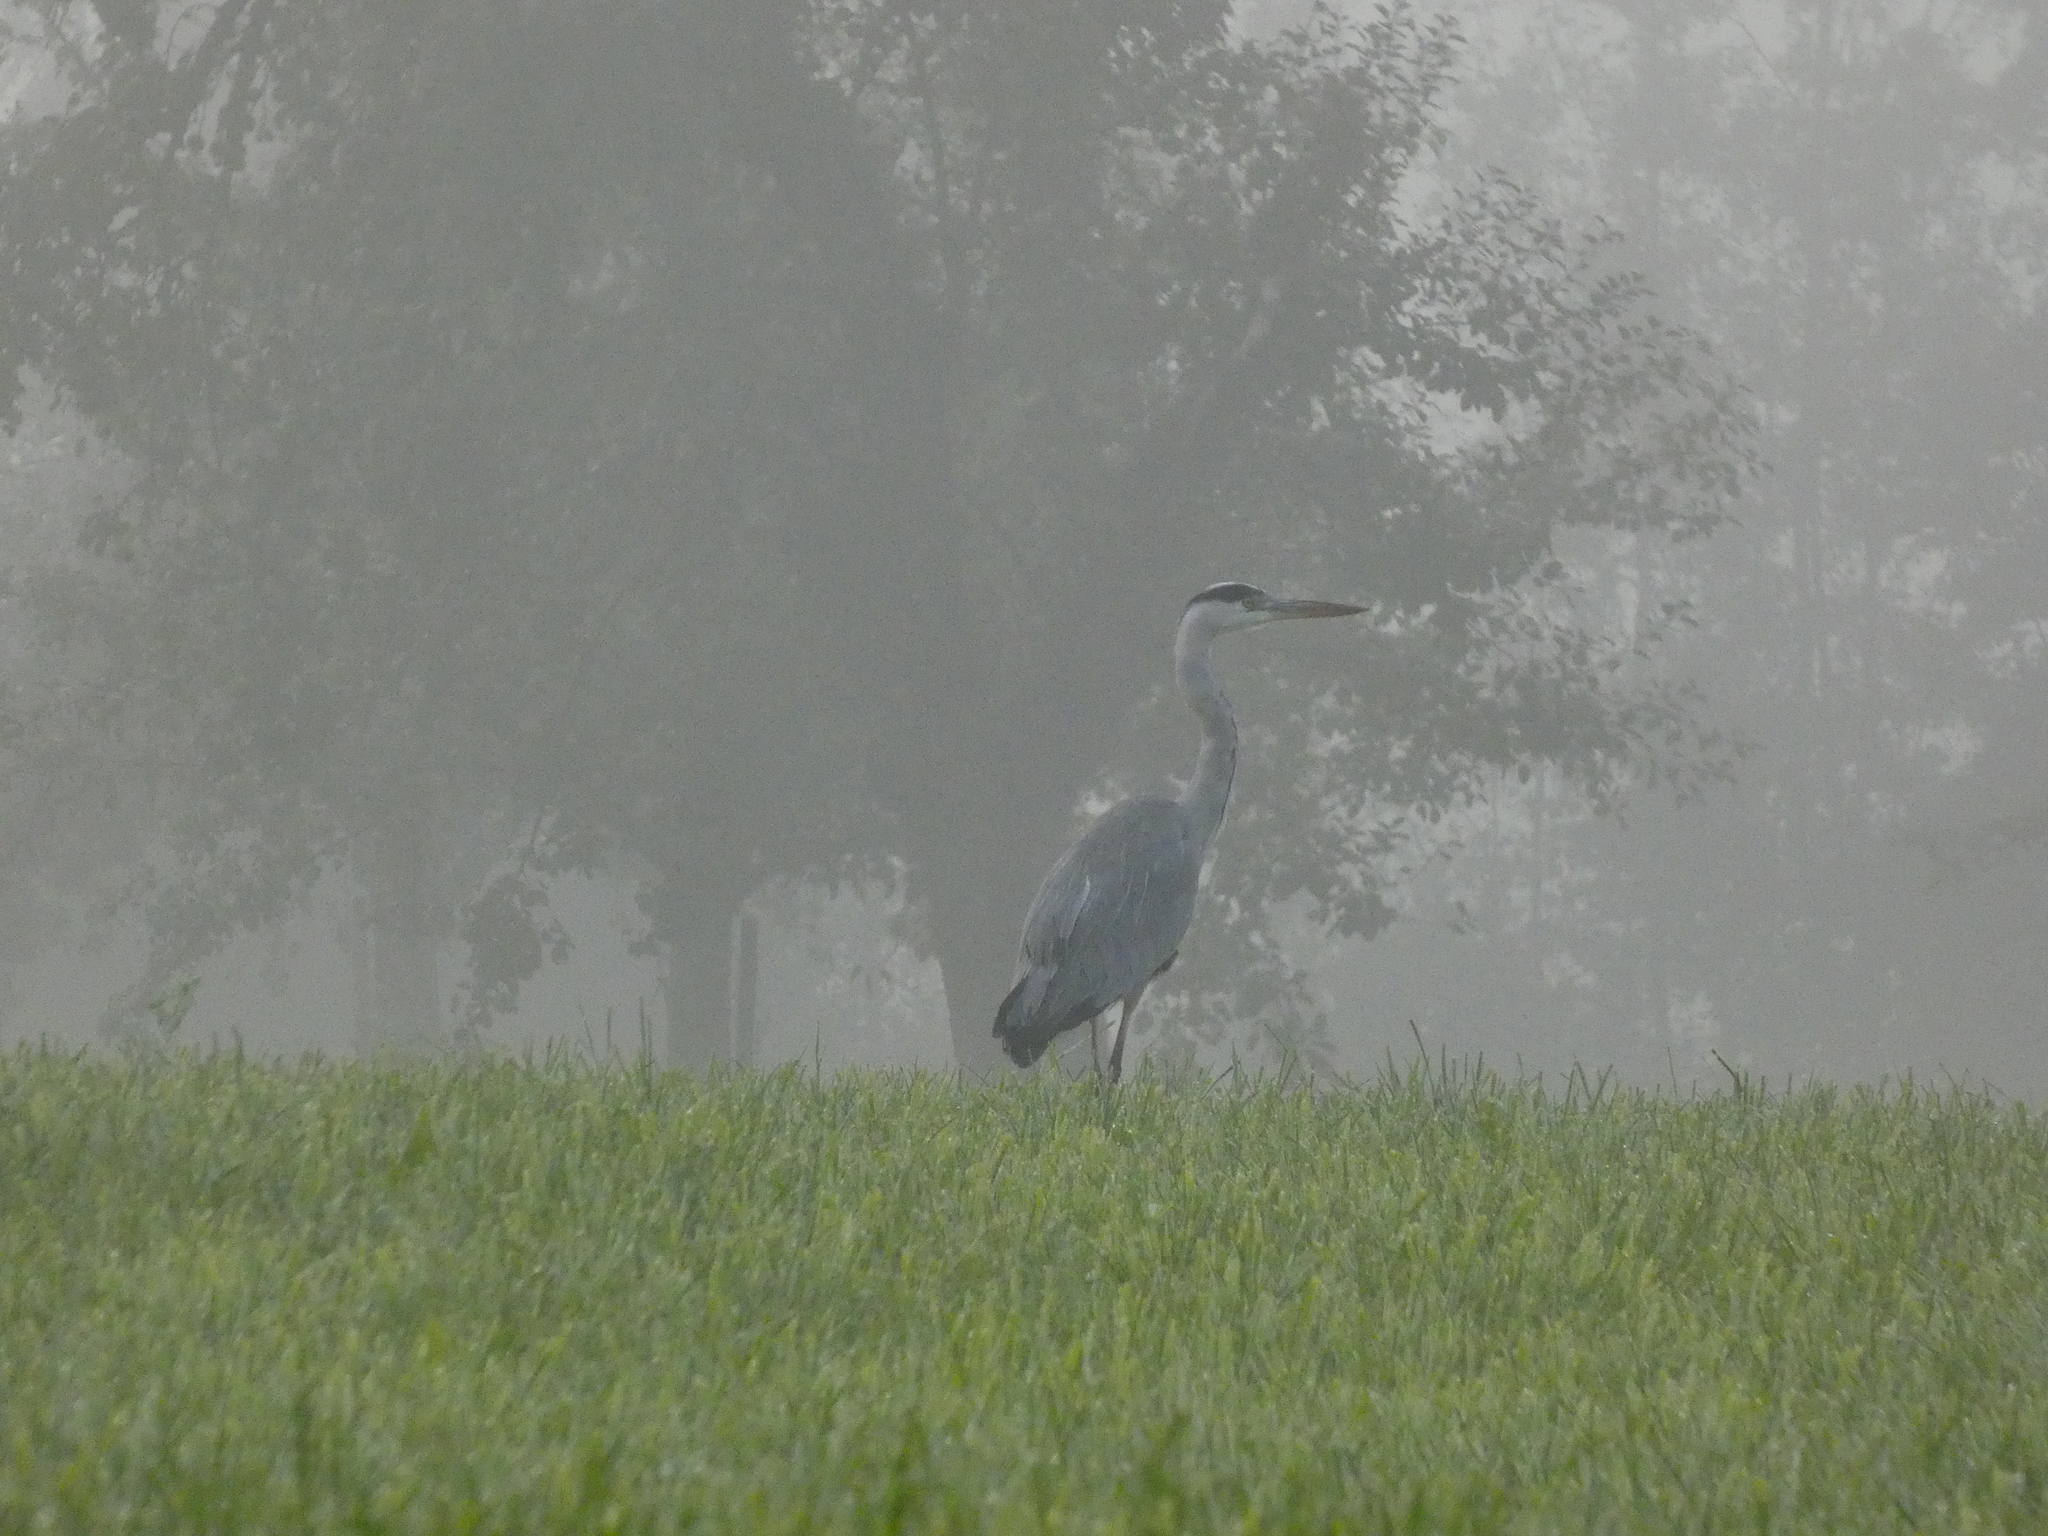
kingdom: Animalia
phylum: Chordata
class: Aves
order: Pelecaniformes
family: Ardeidae
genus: Ardea
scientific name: Ardea cinerea
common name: Grey heron
